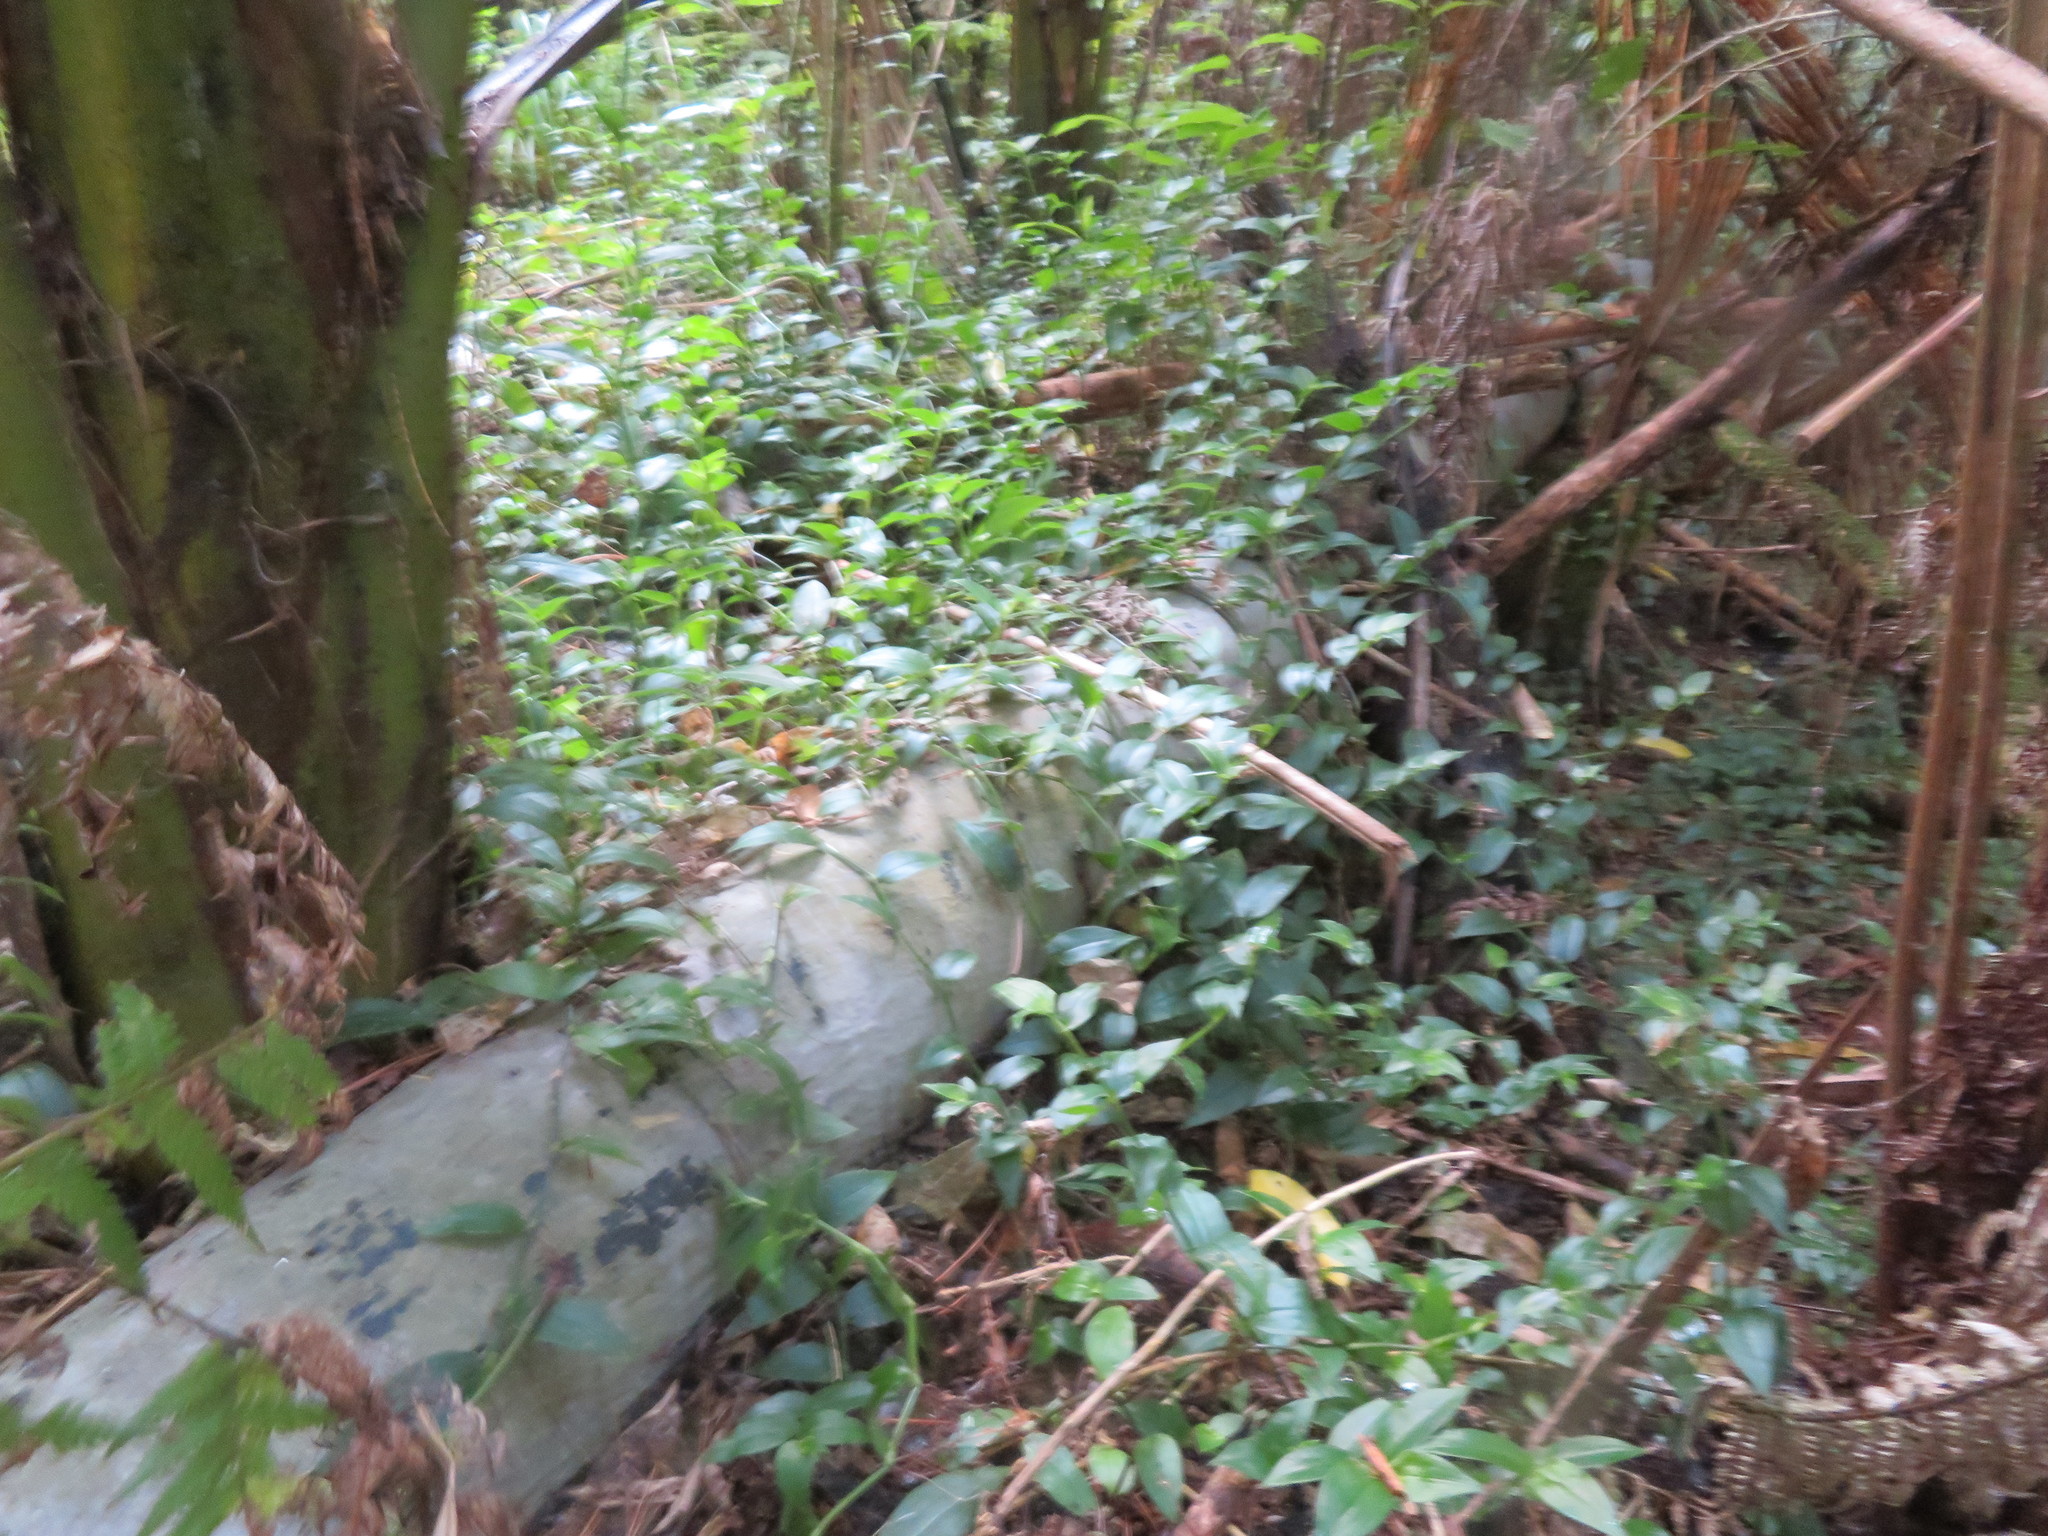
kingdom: Plantae
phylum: Tracheophyta
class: Liliopsida
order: Commelinales
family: Commelinaceae
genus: Tradescantia
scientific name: Tradescantia fluminensis
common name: Wandering-jew
